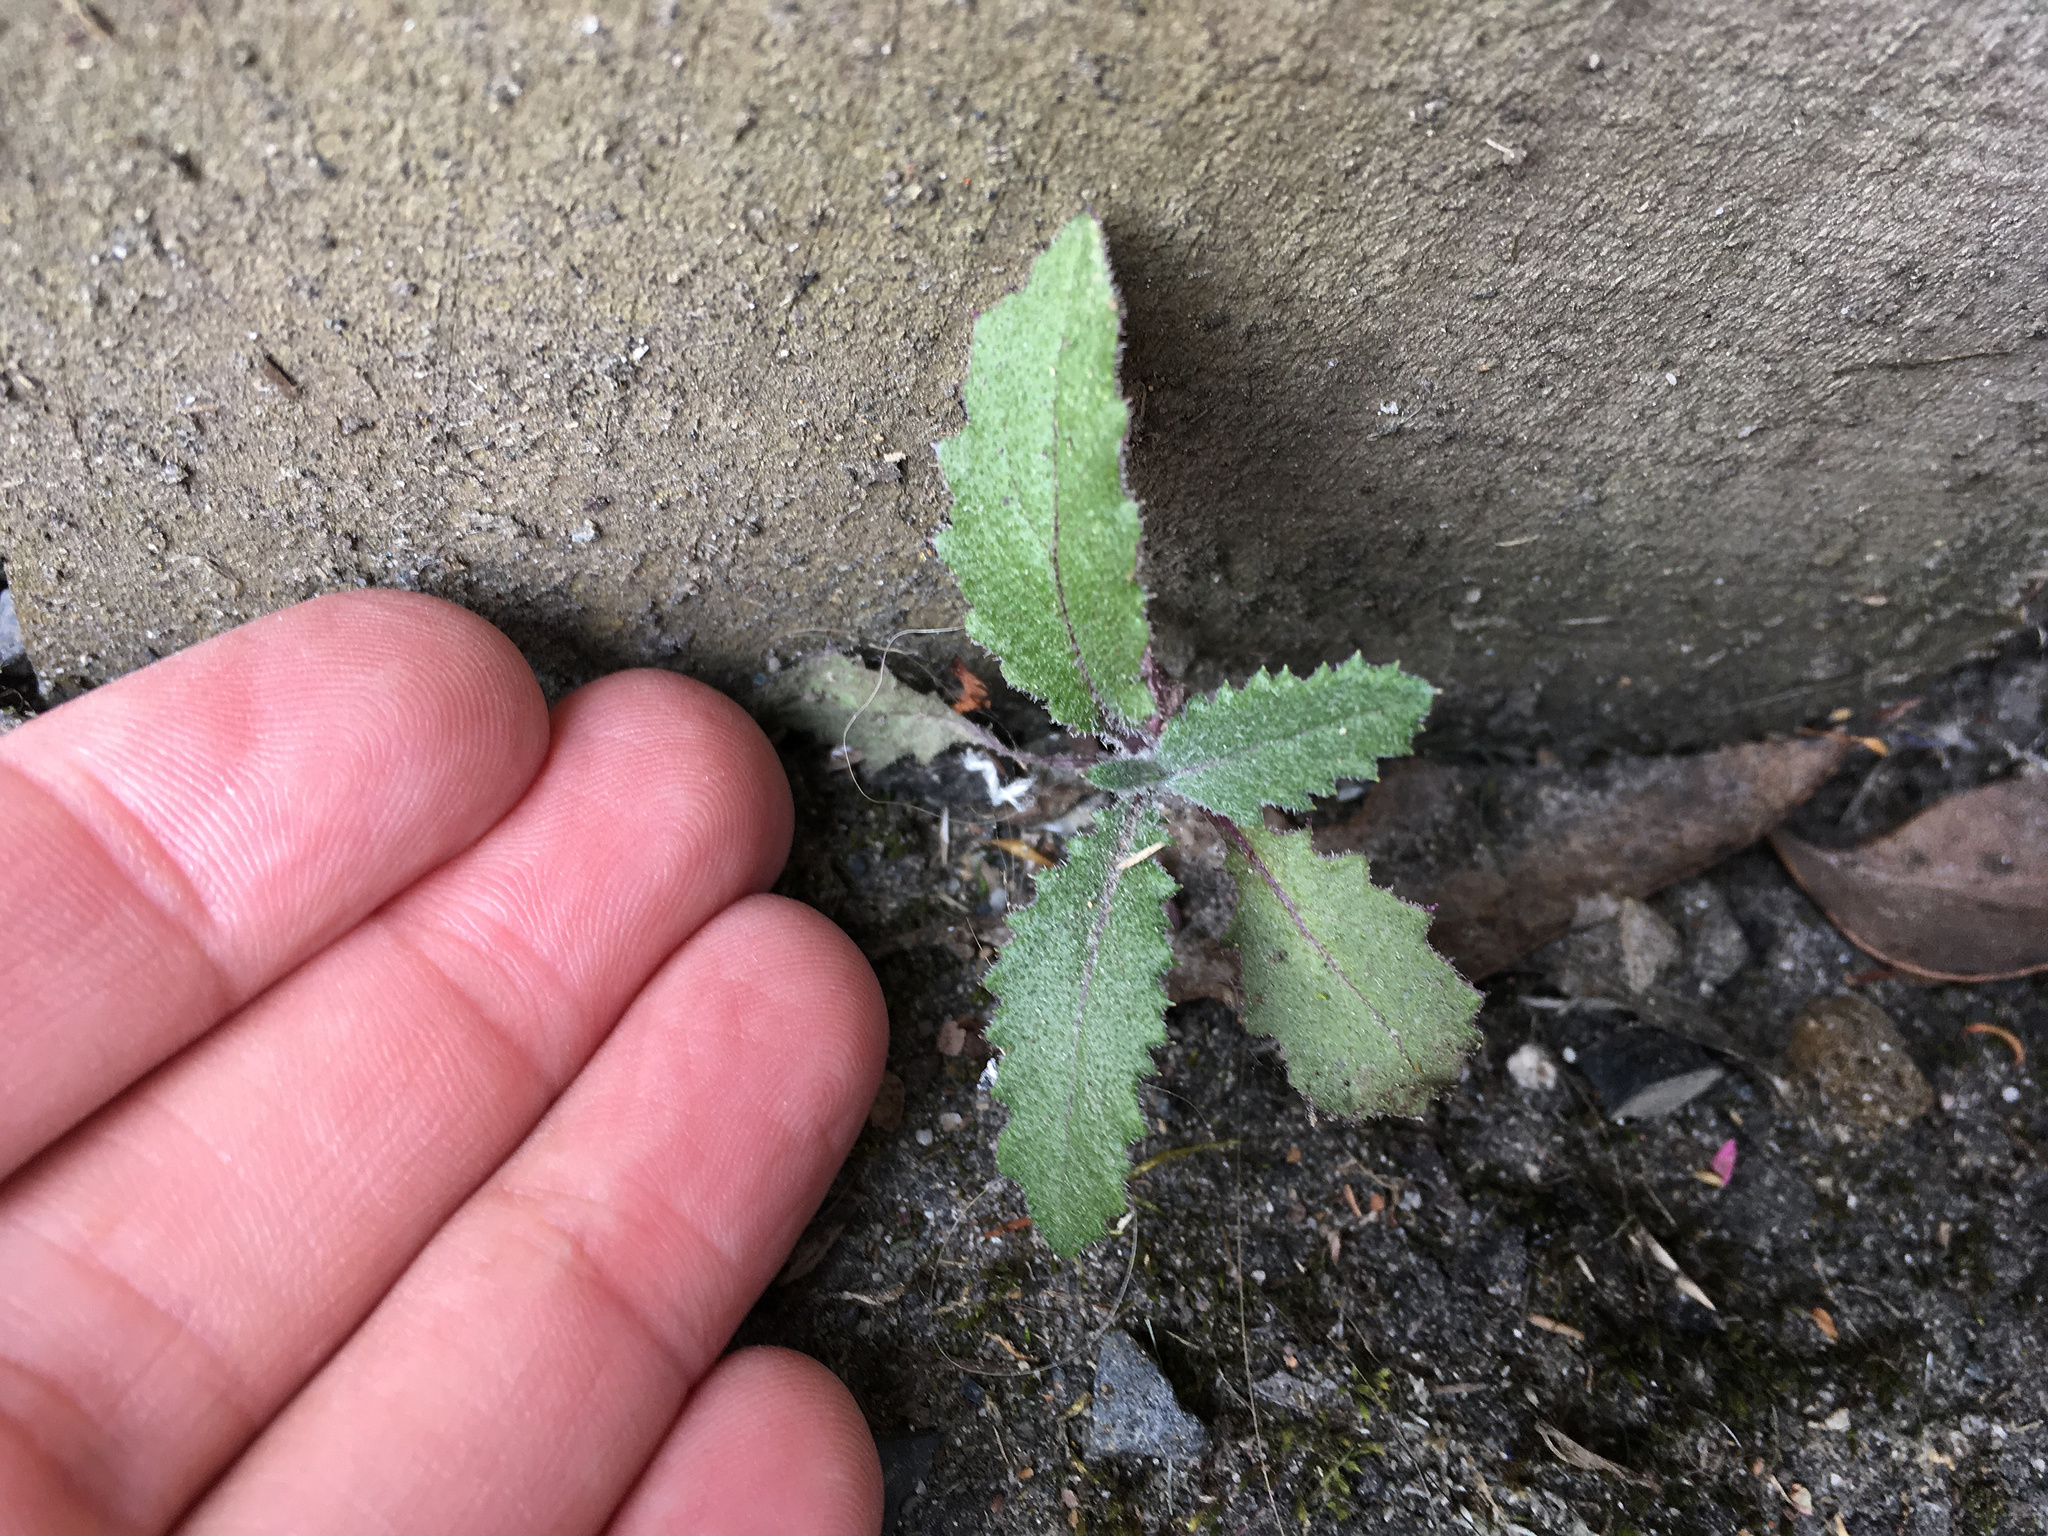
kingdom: Plantae
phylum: Tracheophyta
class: Magnoliopsida
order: Asterales
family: Asteraceae
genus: Senecio
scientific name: Senecio minimus
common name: Toothed fireweed
